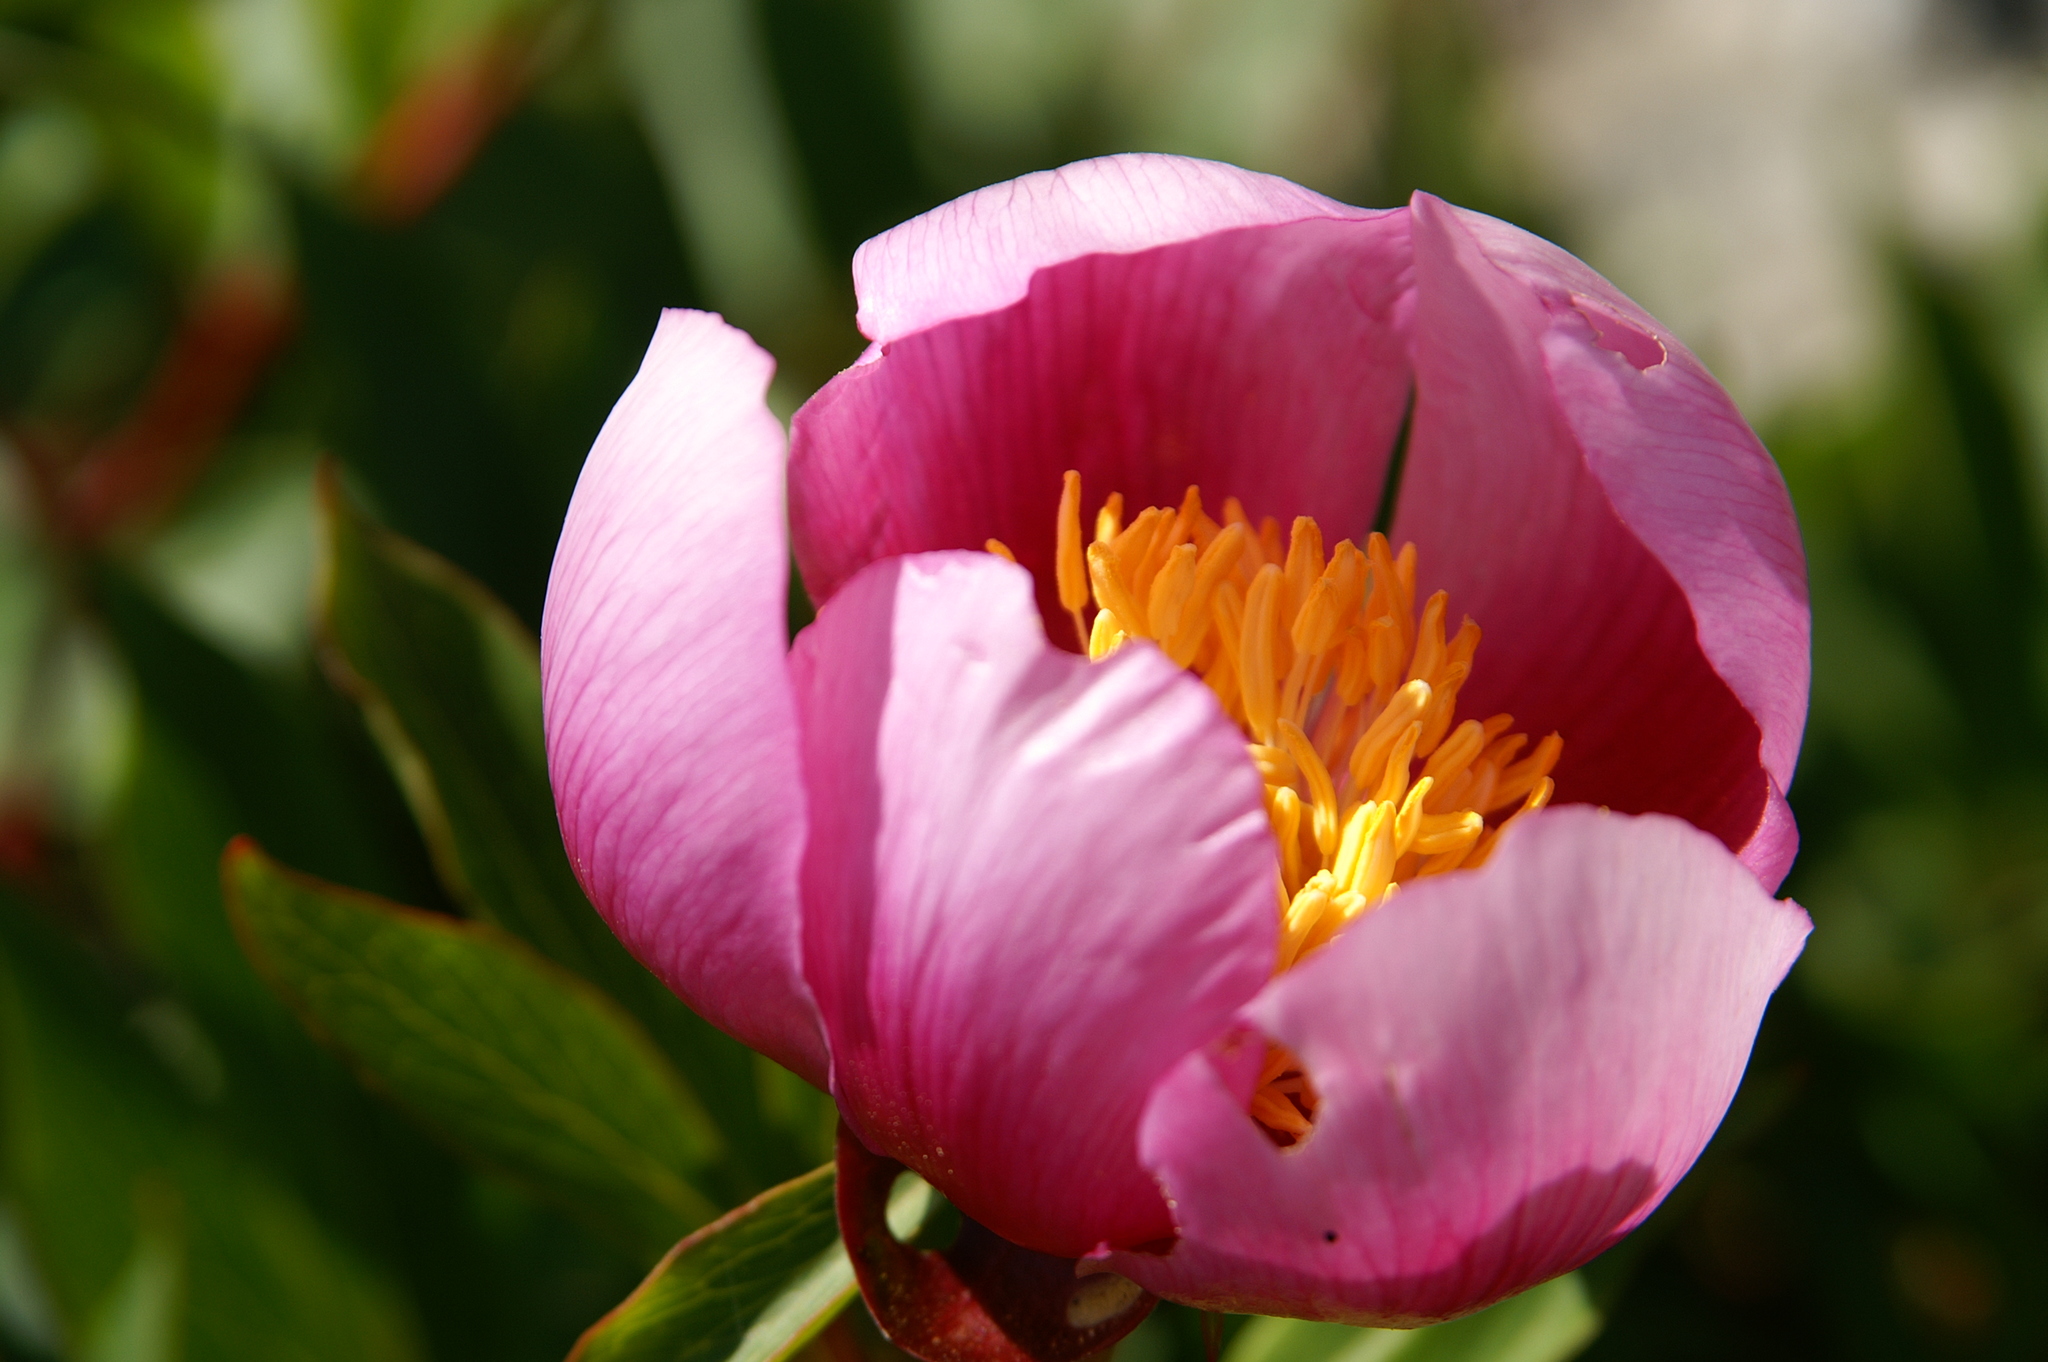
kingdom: Plantae
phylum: Tracheophyta
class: Magnoliopsida
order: Saxifragales
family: Paeoniaceae
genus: Paeonia
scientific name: Paeonia broteroi
